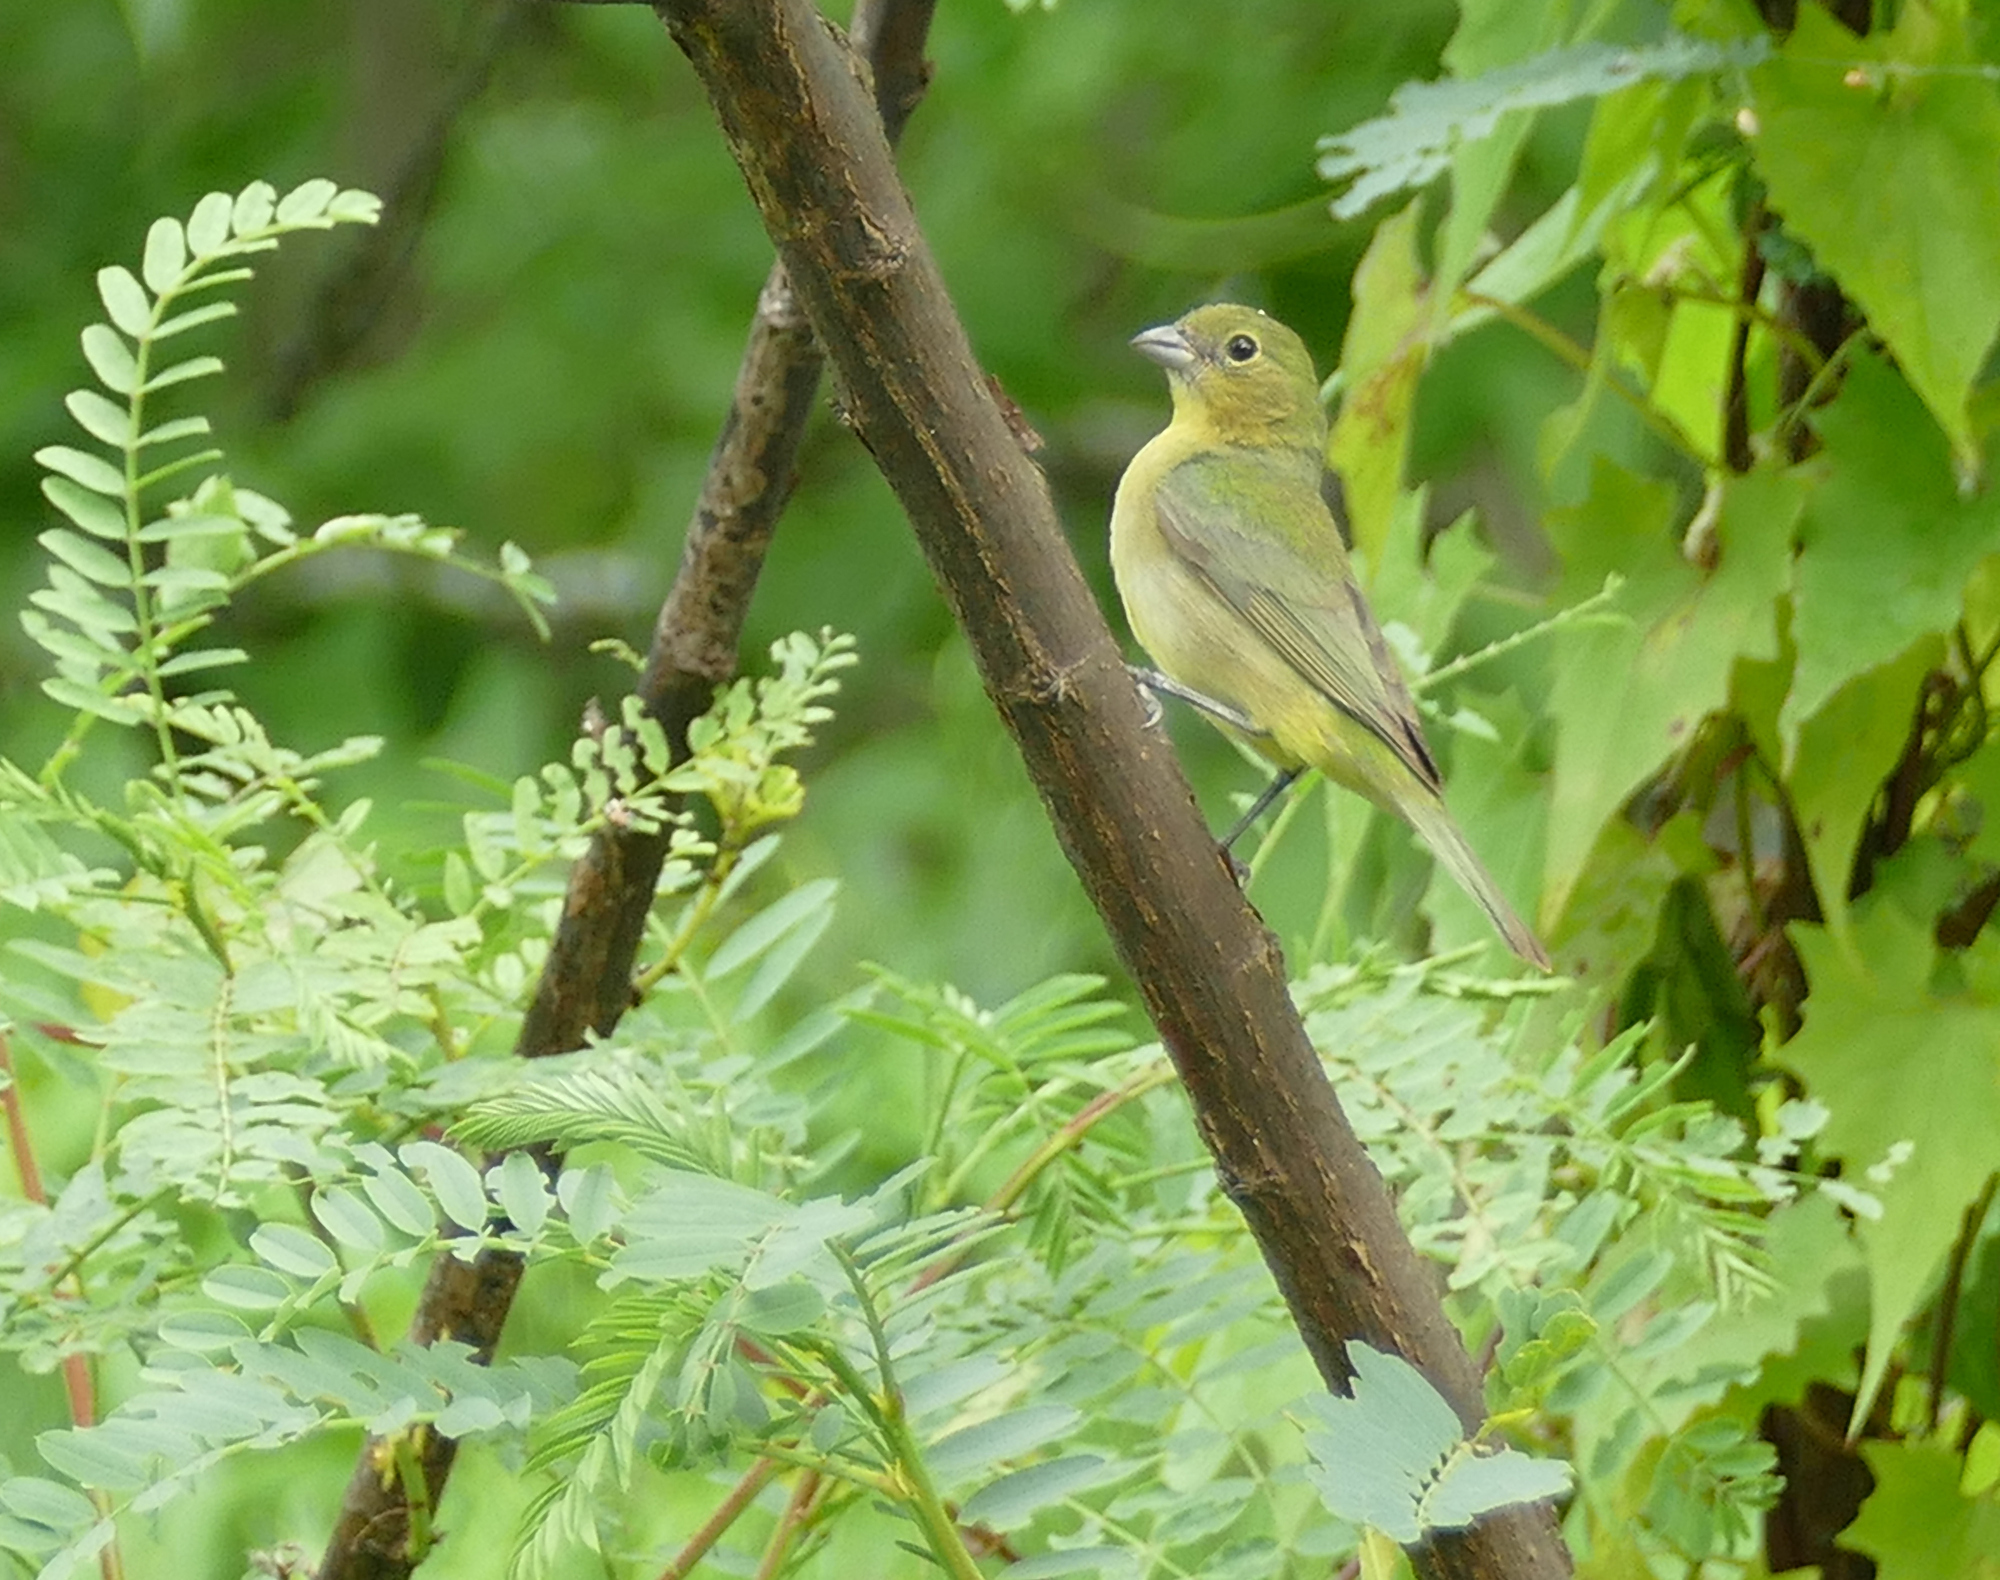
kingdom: Animalia
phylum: Chordata
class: Aves
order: Passeriformes
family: Cardinalidae
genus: Passerina
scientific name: Passerina ciris
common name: Painted bunting
